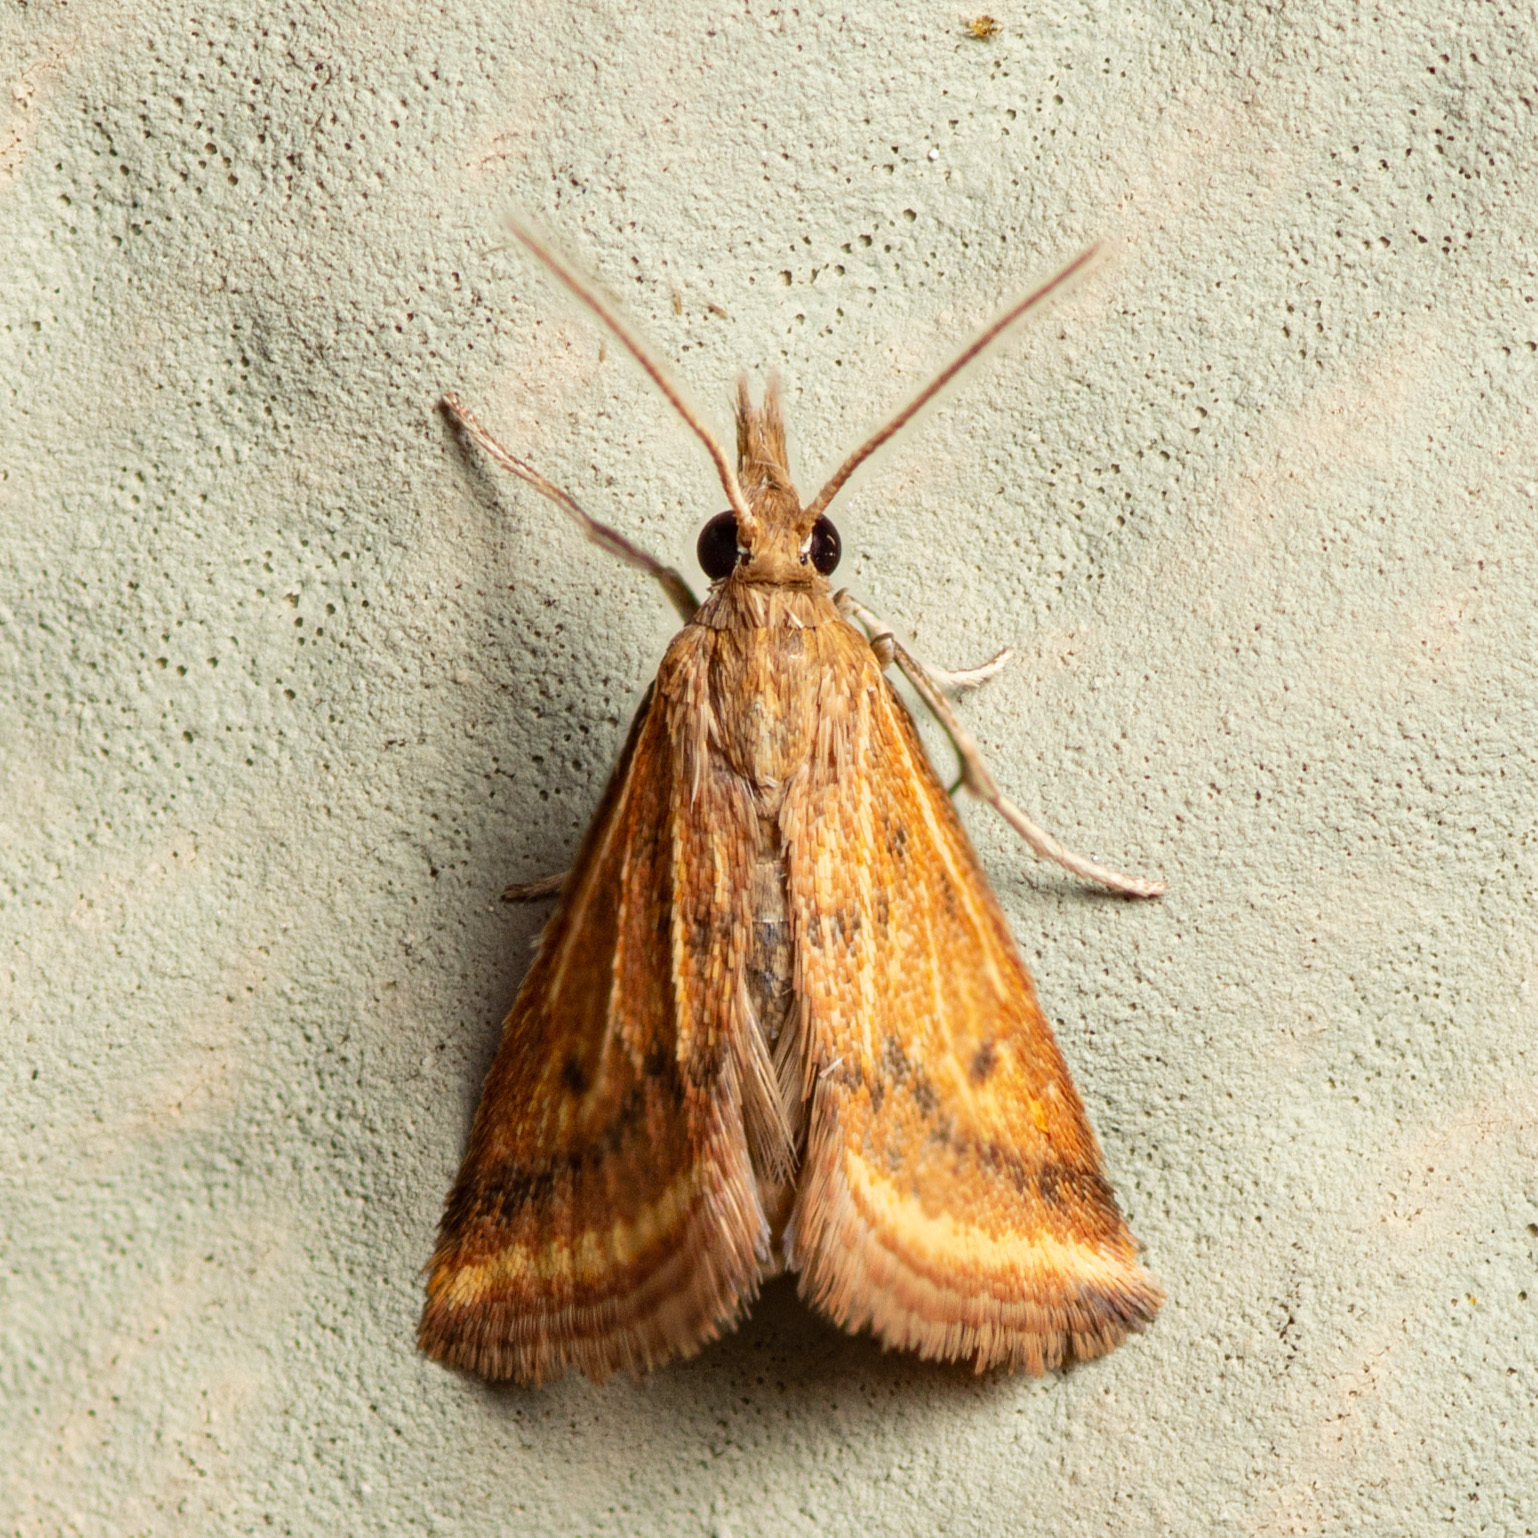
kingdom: Animalia
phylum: Arthropoda
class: Insecta
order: Lepidoptera
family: Crambidae
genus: Microtheoris
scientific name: Microtheoris ophionalis
